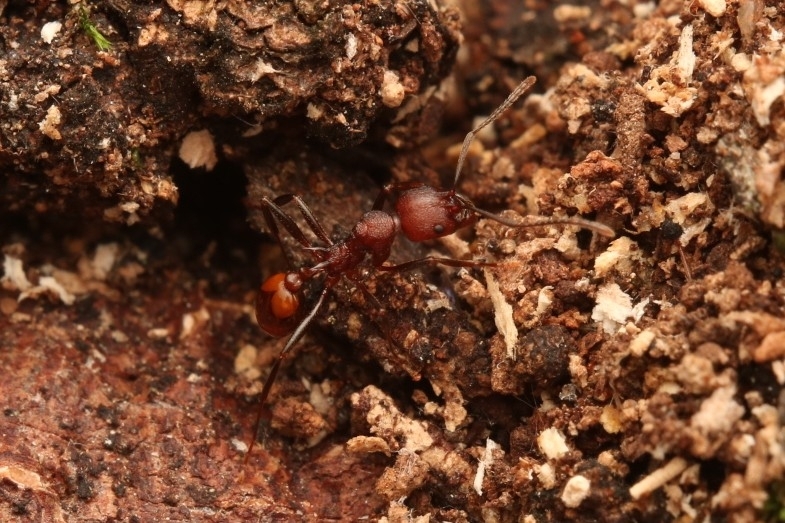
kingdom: Animalia
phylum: Arthropoda
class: Insecta
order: Hymenoptera
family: Formicidae
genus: Aphaenogaster
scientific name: Aphaenogaster tennesseensis
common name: Tennessee thread-waisted ant
